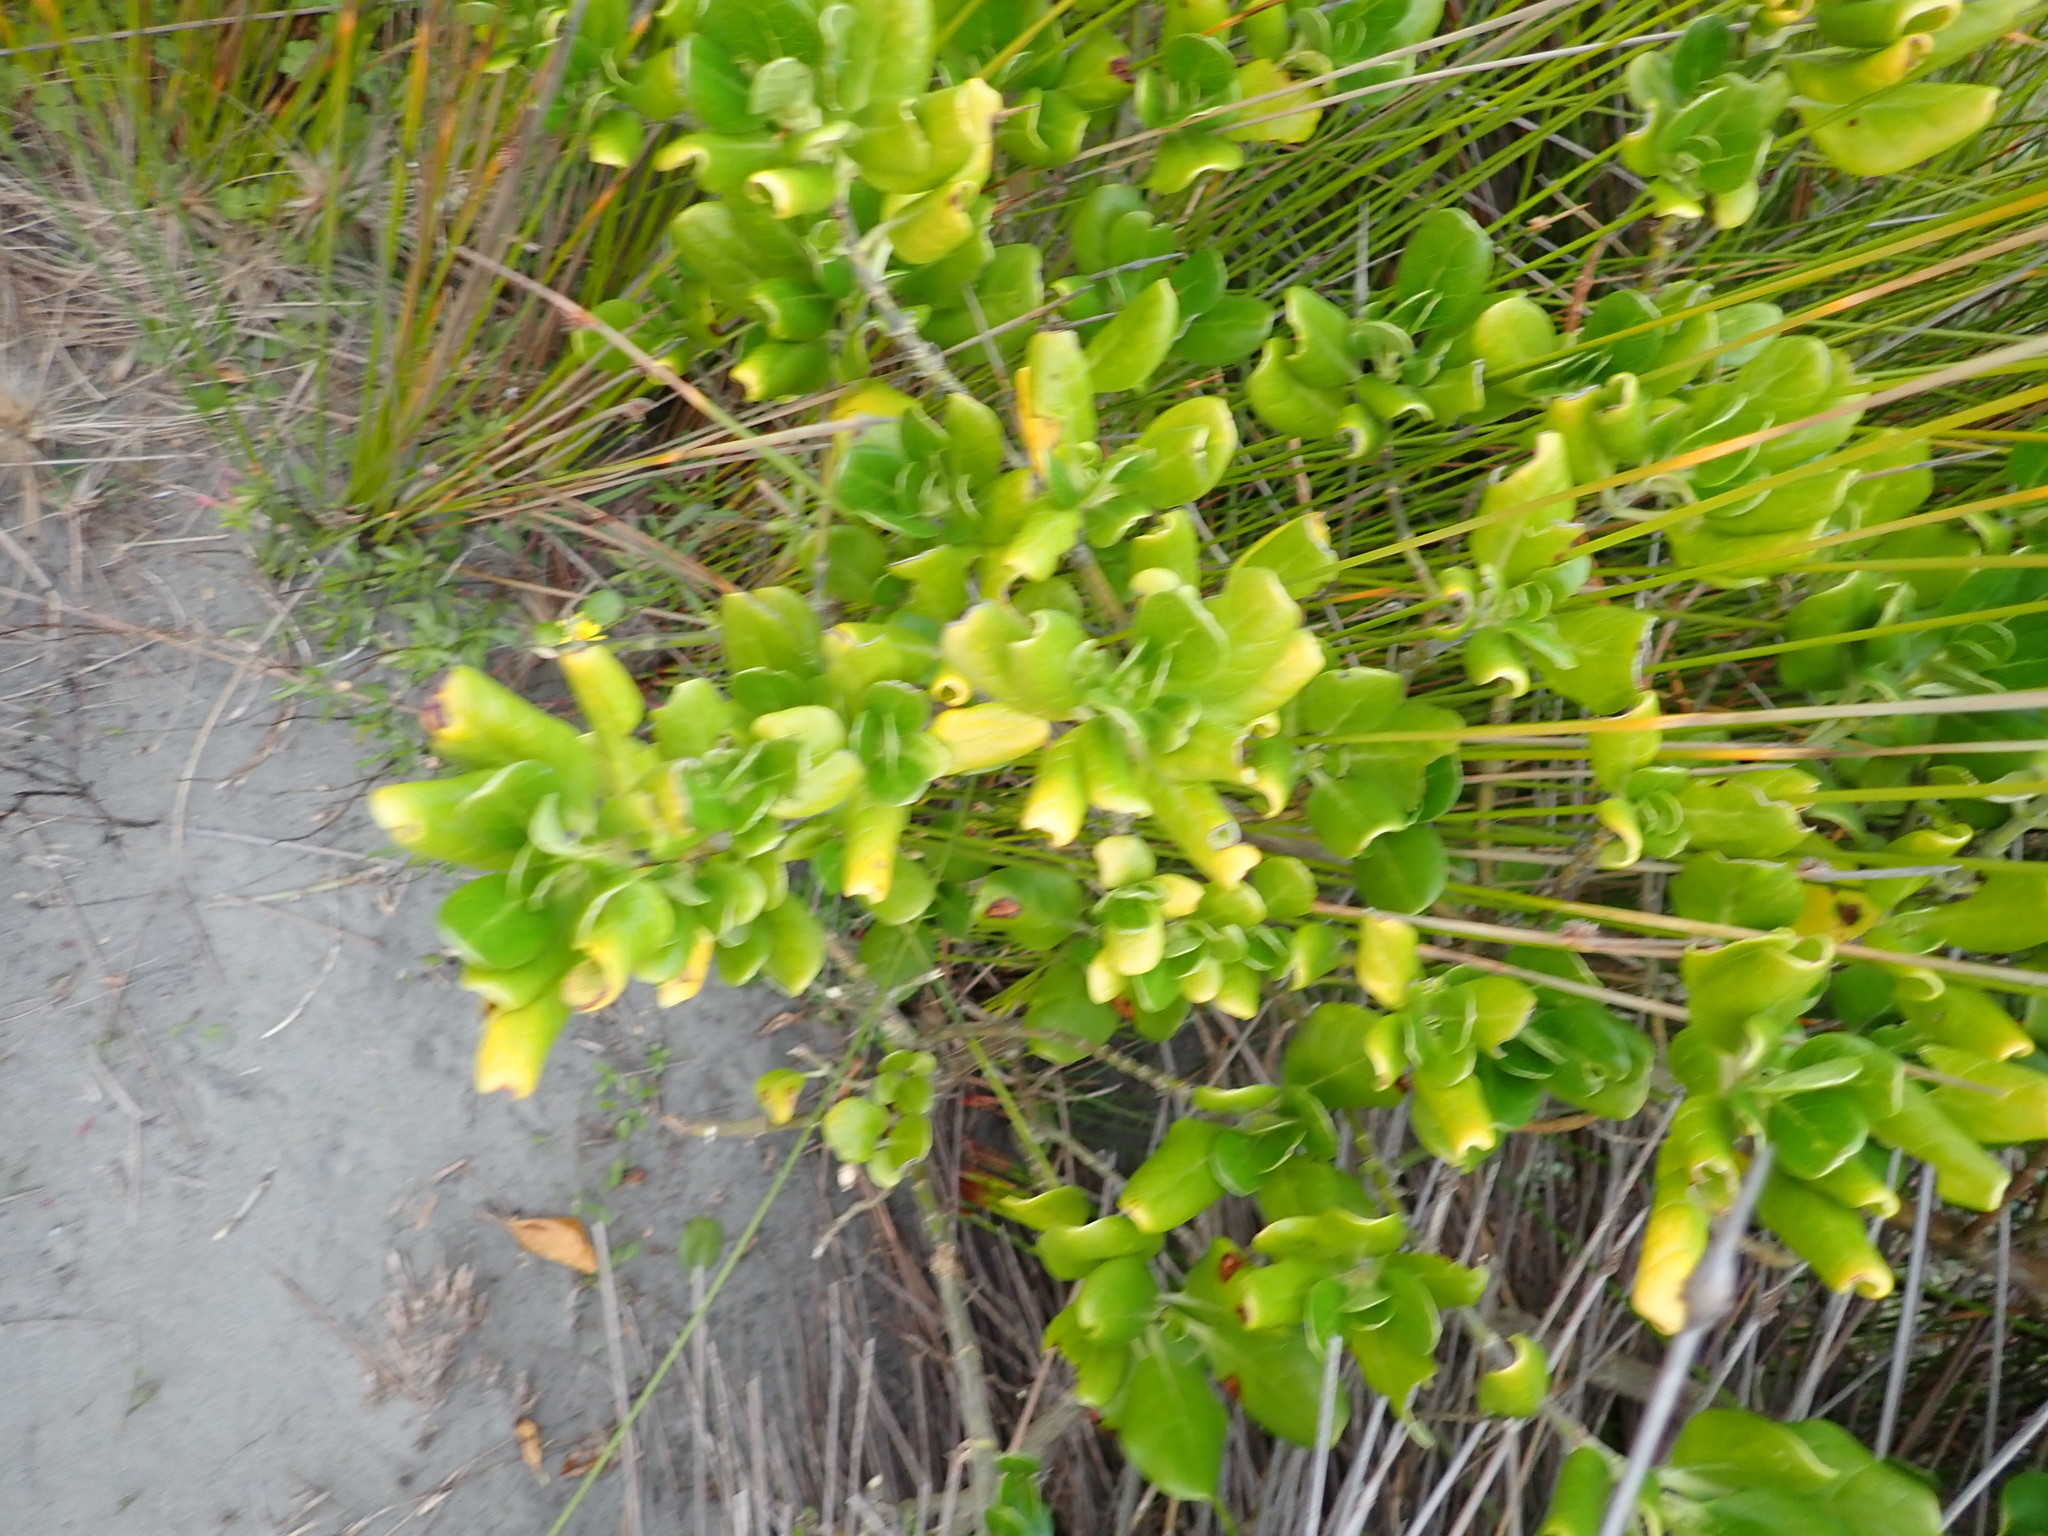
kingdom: Plantae
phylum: Tracheophyta
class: Magnoliopsida
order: Gentianales
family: Rubiaceae
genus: Coprosma
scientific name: Coprosma repens
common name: Tree bedstraw
